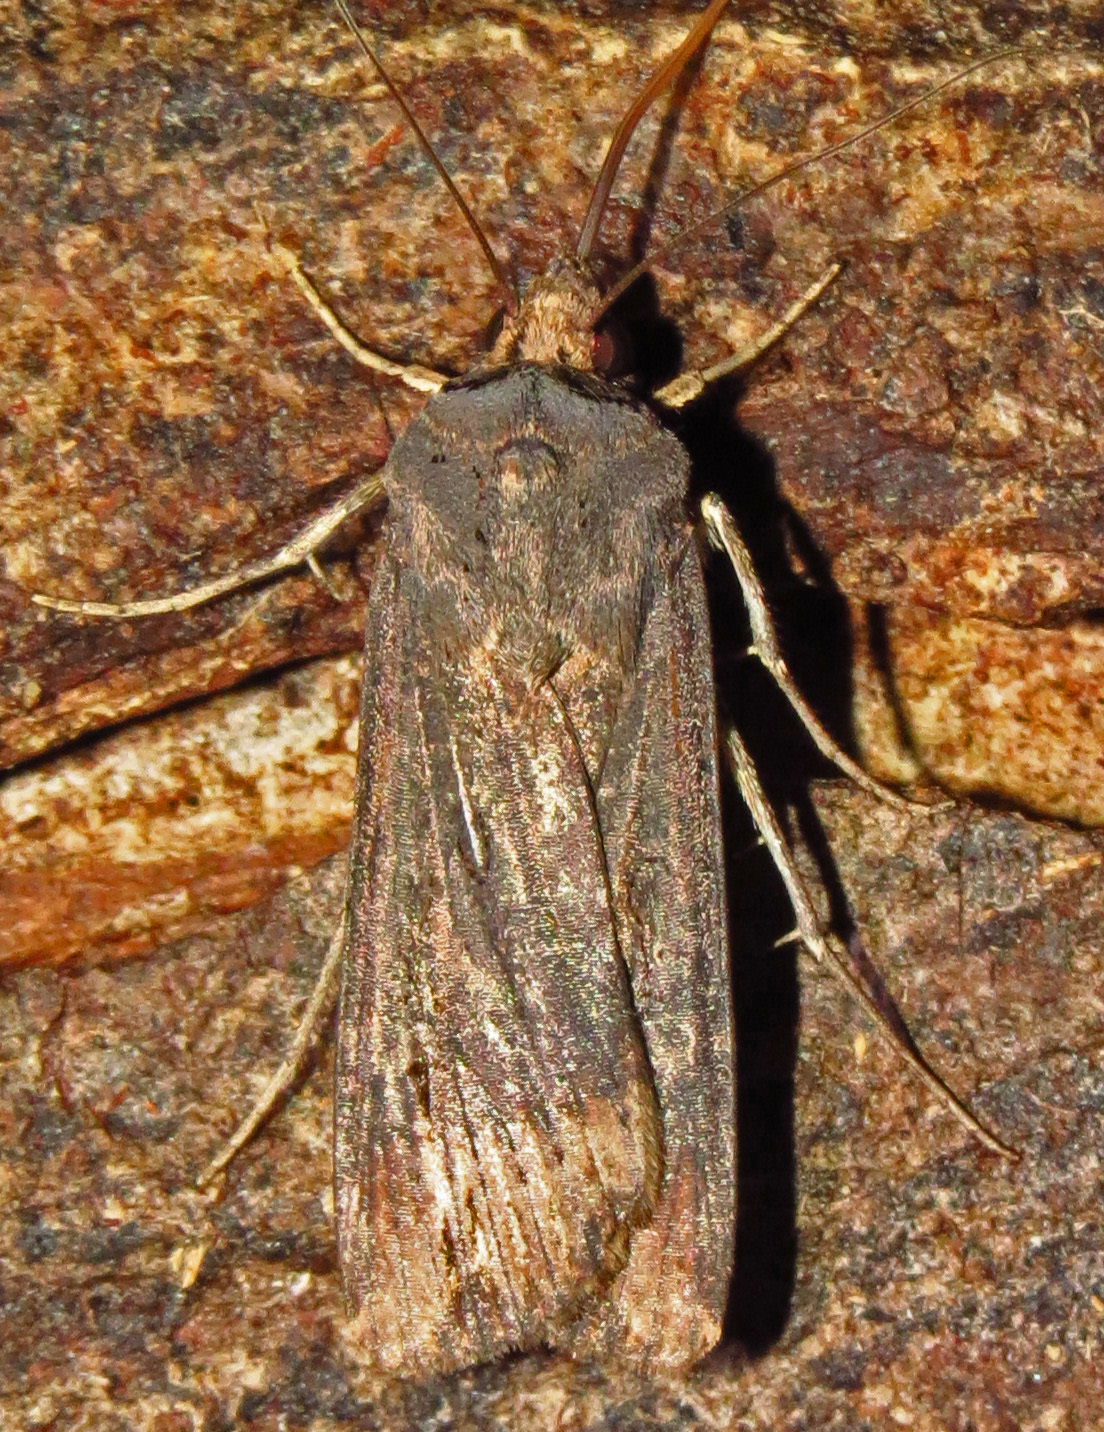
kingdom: Animalia
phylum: Arthropoda
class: Insecta
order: Lepidoptera
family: Noctuidae
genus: Agrotis
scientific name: Agrotis ipsilon
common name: Dark sword-grass
